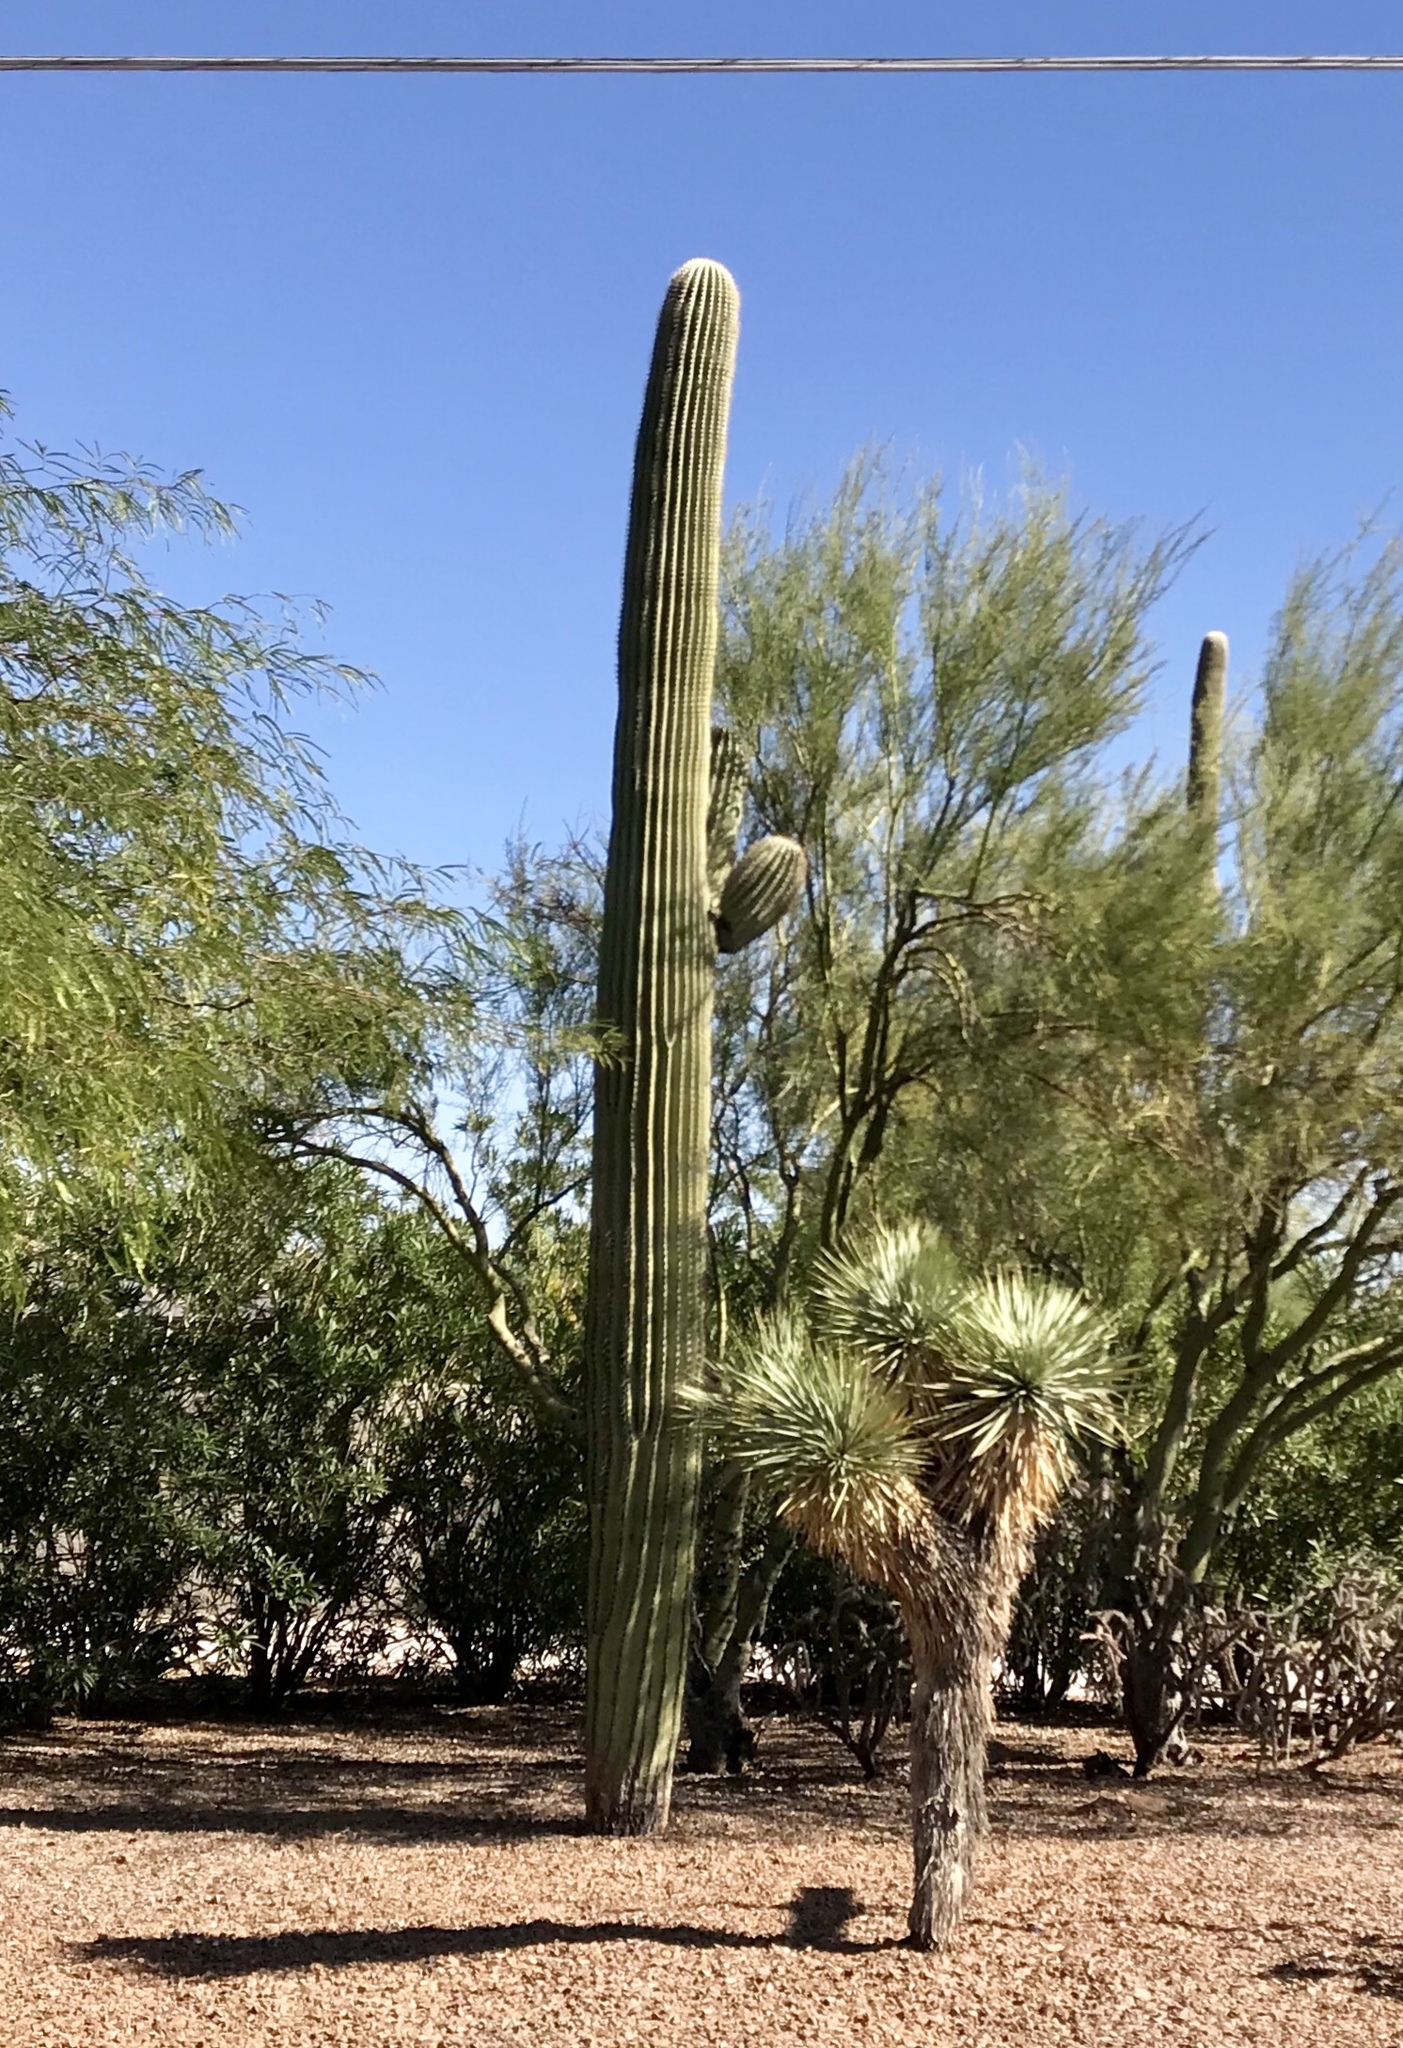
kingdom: Plantae
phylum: Tracheophyta
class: Magnoliopsida
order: Caryophyllales
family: Cactaceae
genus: Carnegiea
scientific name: Carnegiea gigantea
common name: Saguaro
